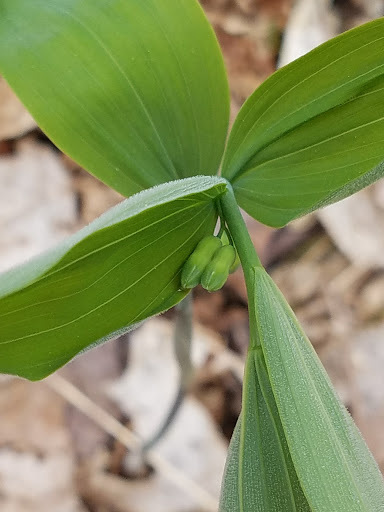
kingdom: Plantae
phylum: Tracheophyta
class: Liliopsida
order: Asparagales
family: Asparagaceae
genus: Polygonatum
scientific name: Polygonatum pubescens
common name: Downy solomon's seal
